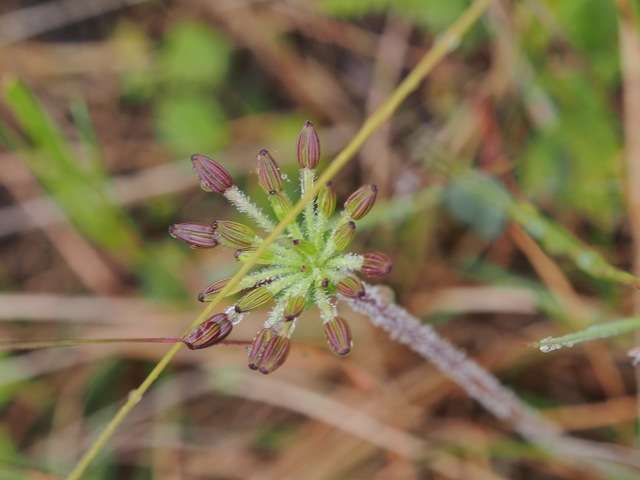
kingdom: Plantae
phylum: Tracheophyta
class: Magnoliopsida
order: Apiales
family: Apiaceae
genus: Chaerophyllum
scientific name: Chaerophyllum eriopodum
